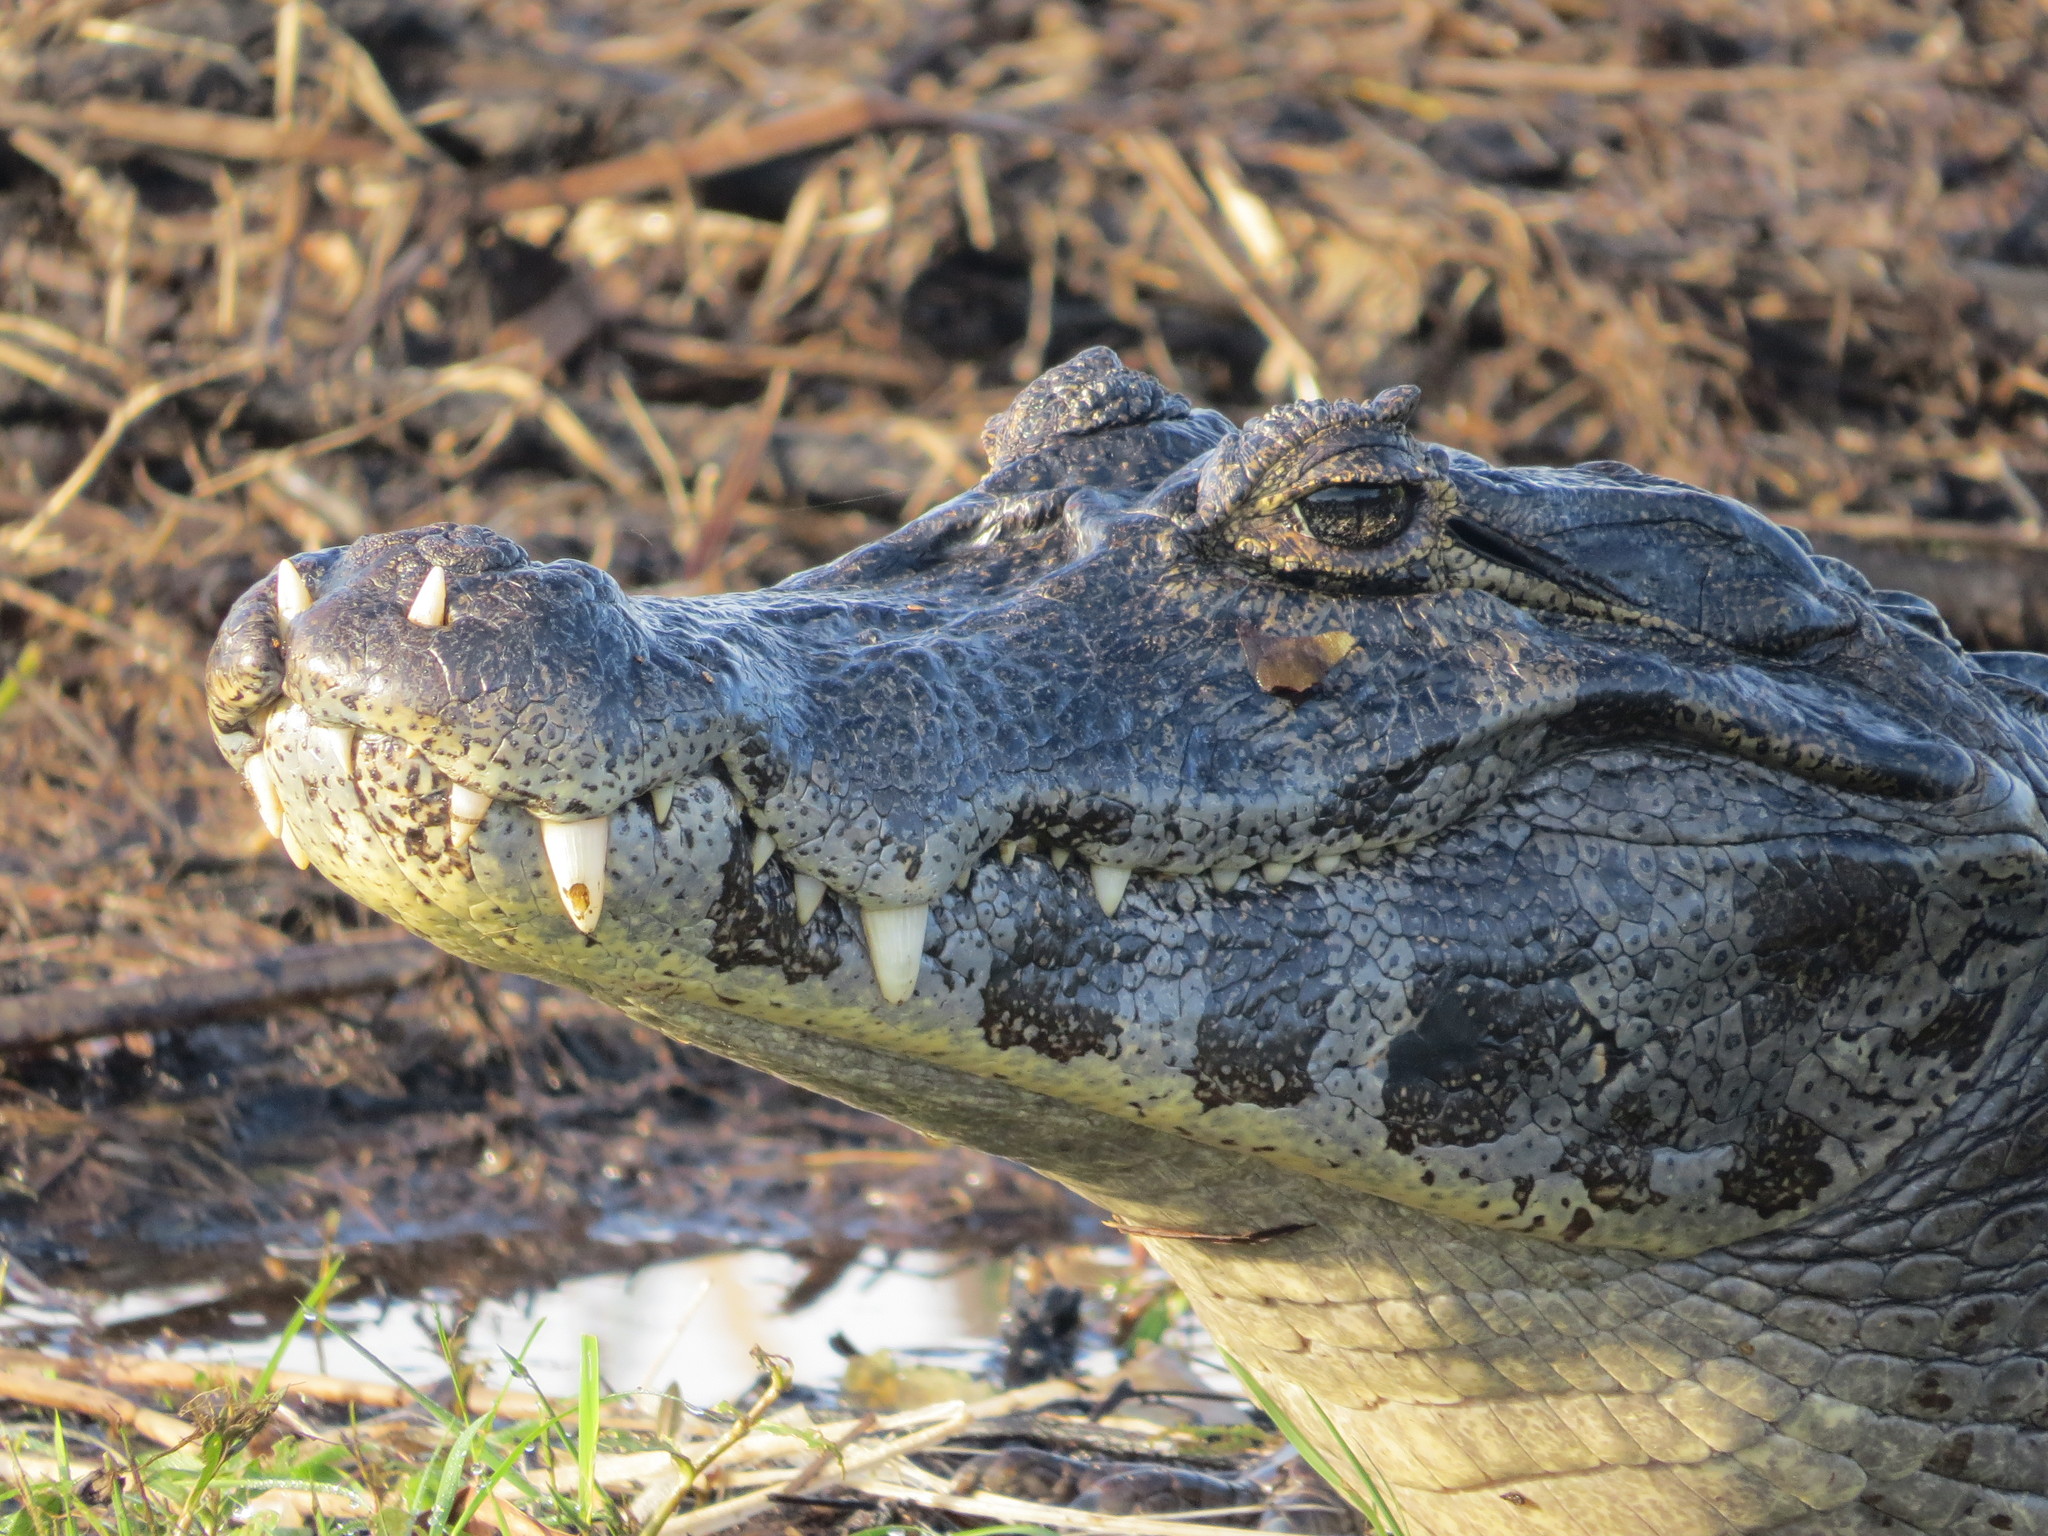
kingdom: Animalia
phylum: Chordata
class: Crocodylia
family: Alligatoridae
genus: Caiman
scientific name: Caiman yacare
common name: Yacare caiman
